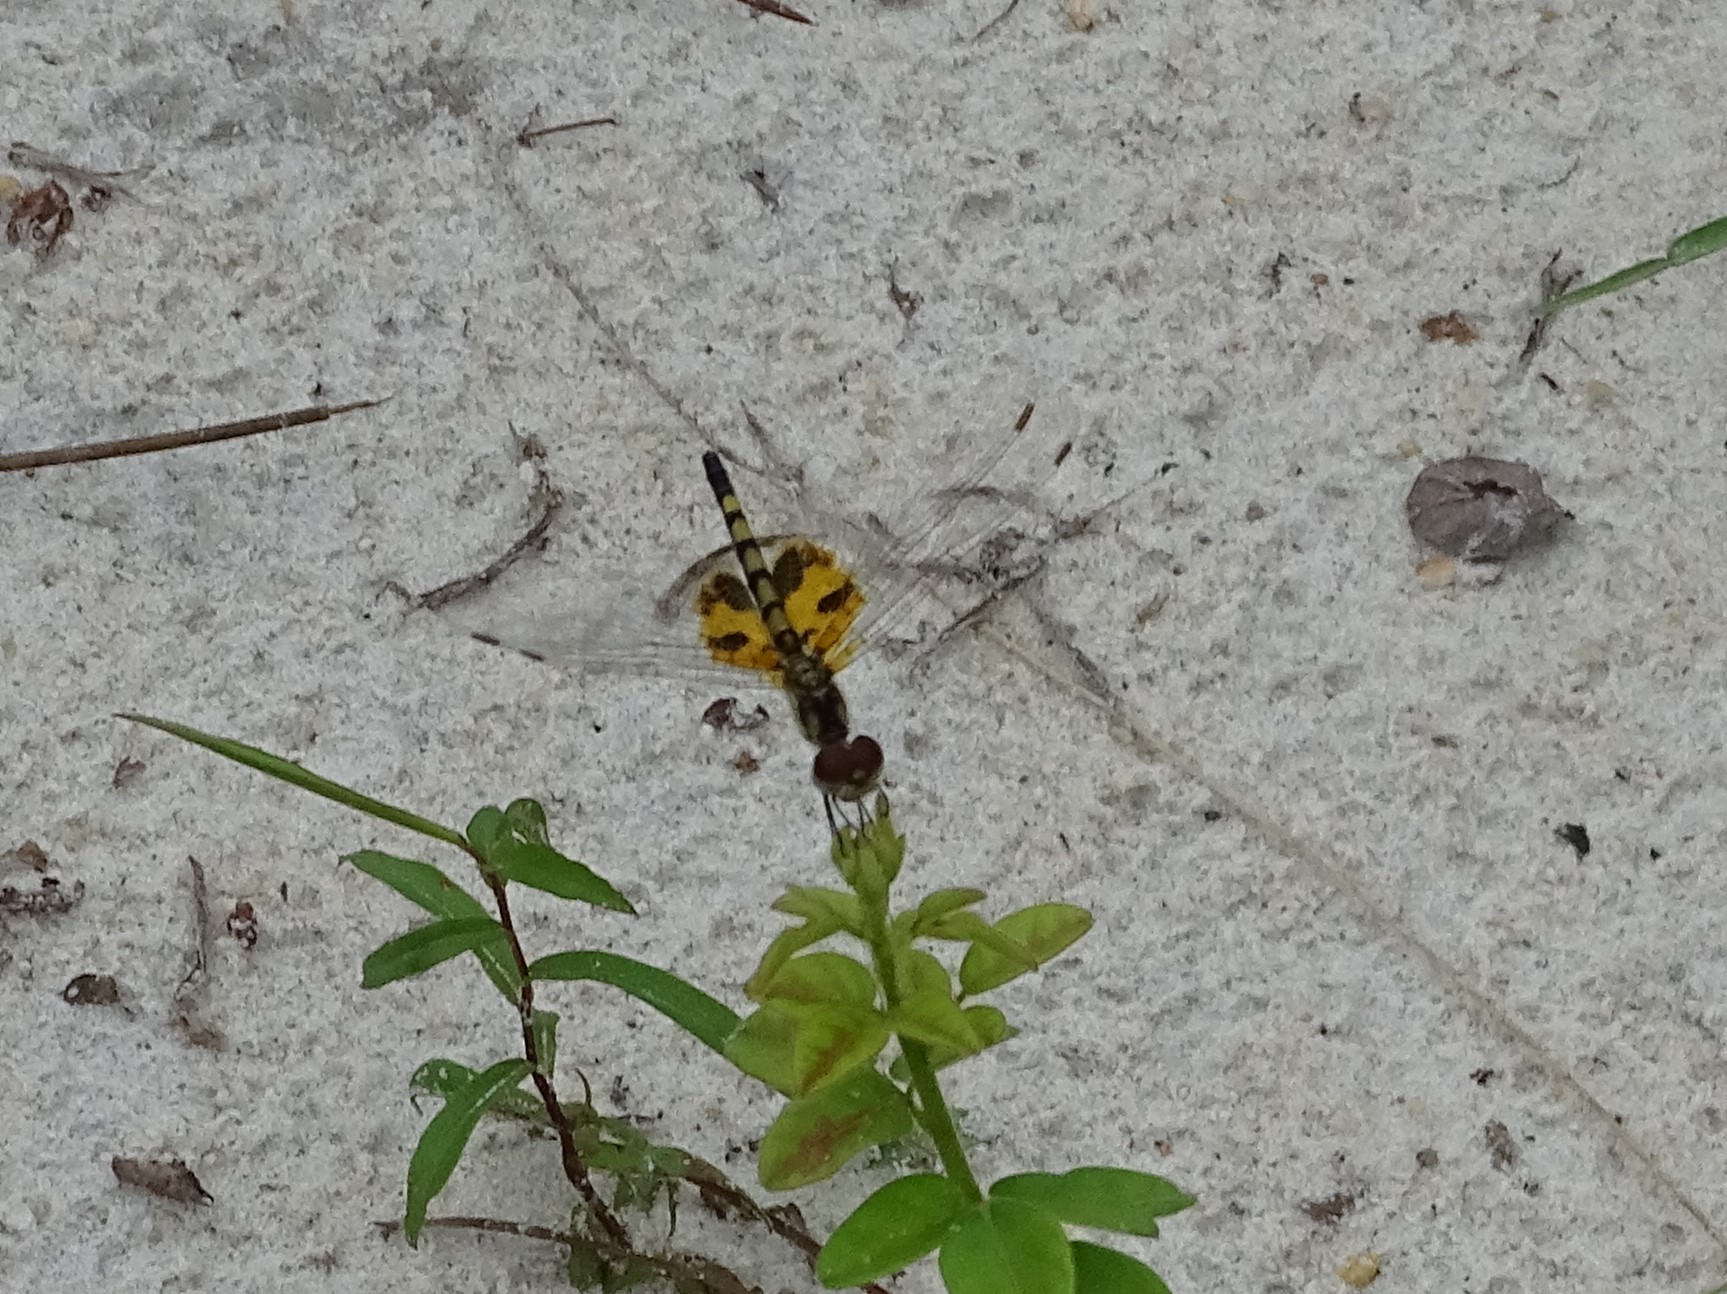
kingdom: Animalia
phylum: Arthropoda
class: Insecta
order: Odonata
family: Libellulidae
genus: Celithemis
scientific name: Celithemis amanda
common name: Amanda's pennant
